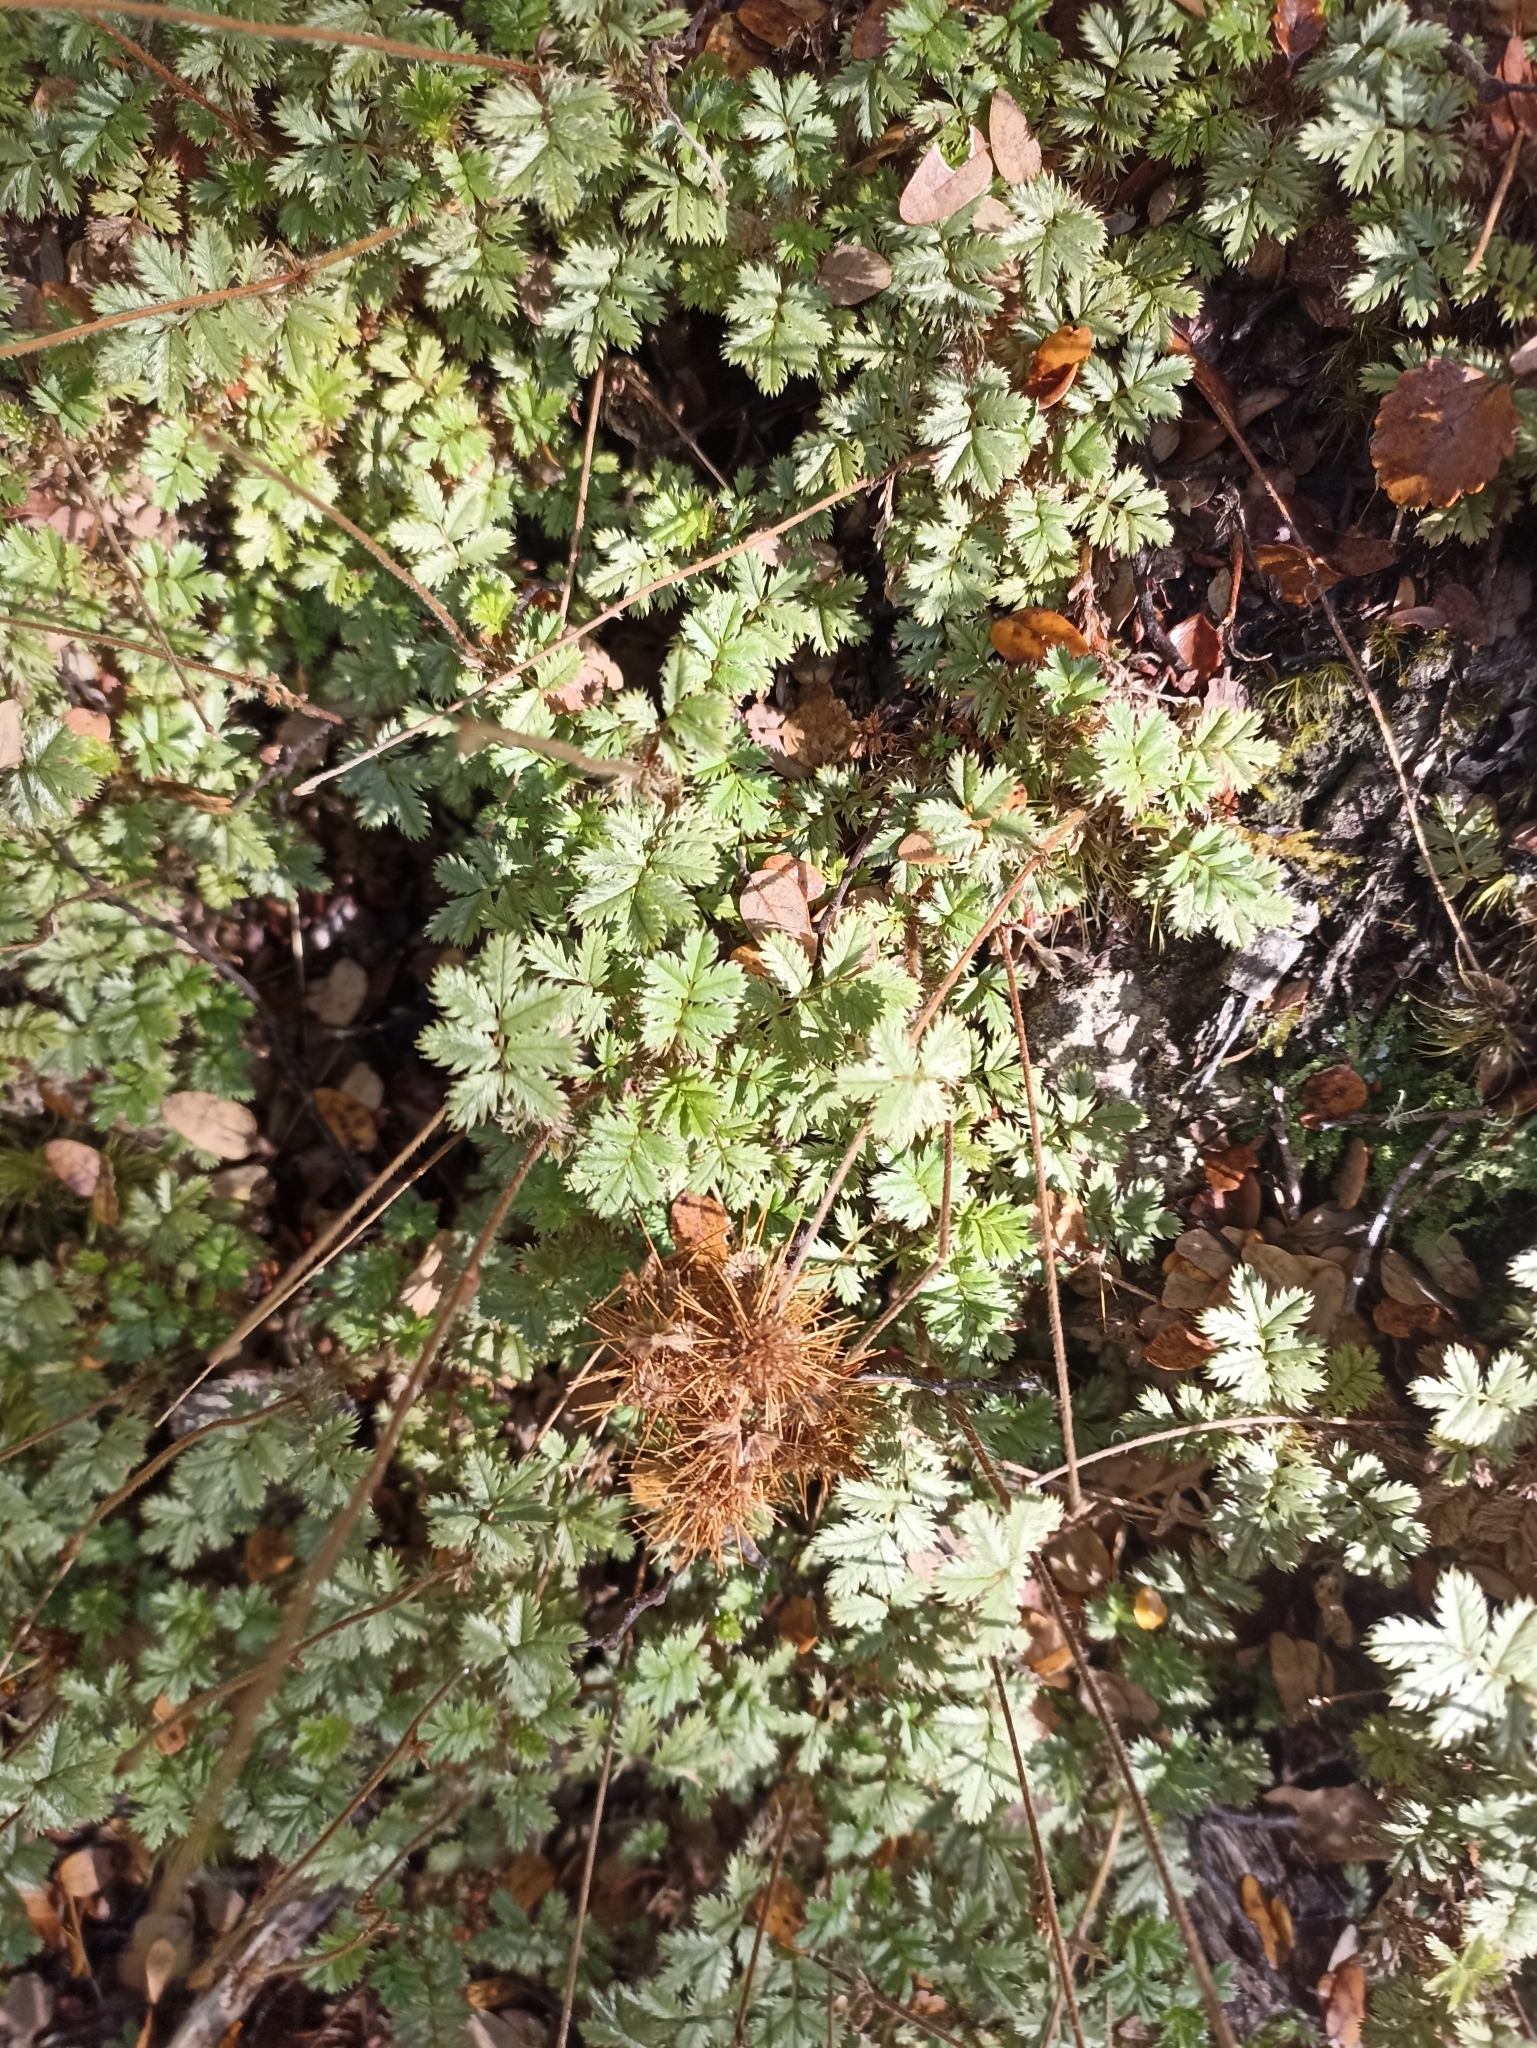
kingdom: Plantae
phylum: Tracheophyta
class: Magnoliopsida
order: Rosales
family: Rosaceae
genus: Acaena
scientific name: Acaena anserinifolia
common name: Bronze pirri-pirri-bur
